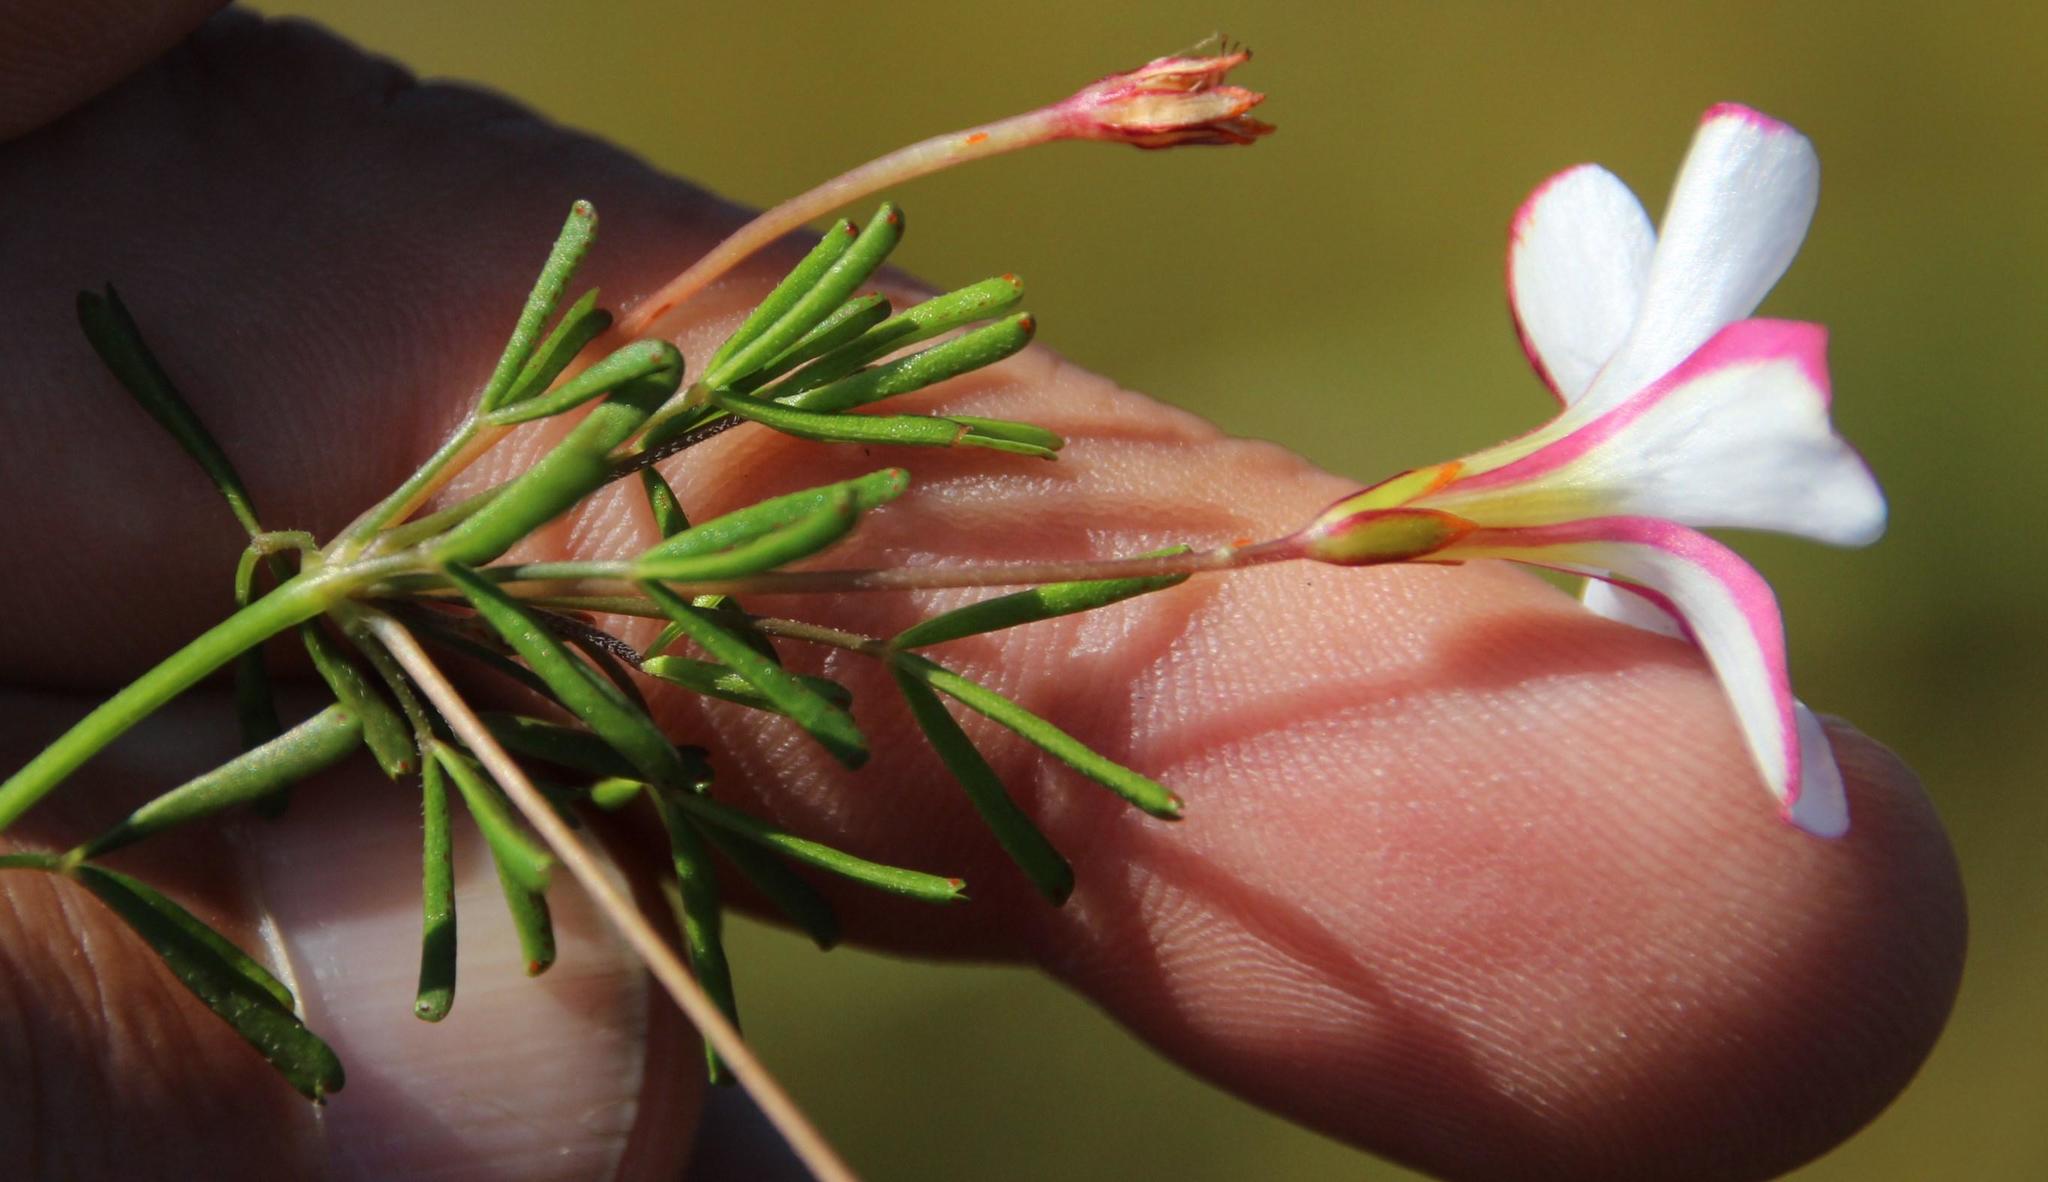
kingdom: Plantae
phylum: Tracheophyta
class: Magnoliopsida
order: Oxalidales
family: Oxalidaceae
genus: Oxalis
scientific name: Oxalis versicolor
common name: Peppermint rock oxalis
